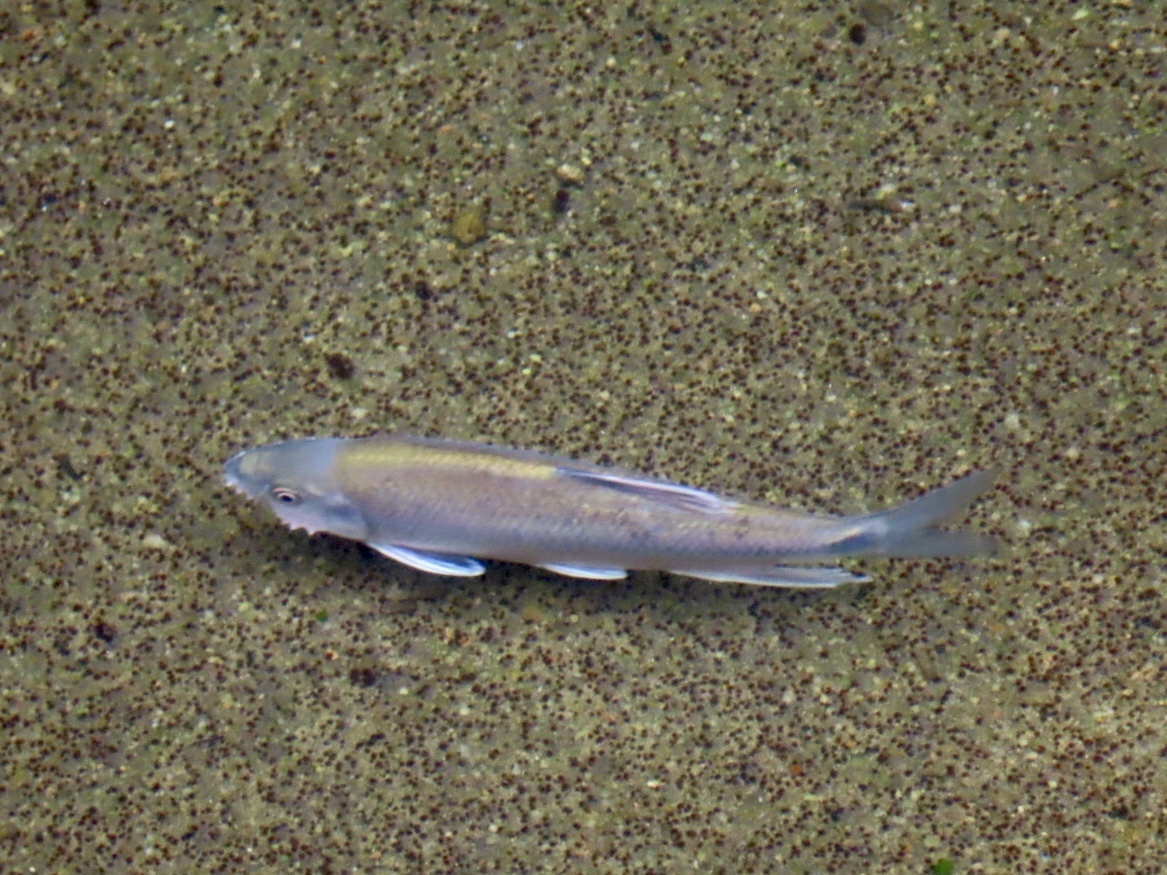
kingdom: Animalia
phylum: Chordata
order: Cypriniformes
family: Cyprinidae
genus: Parazacco
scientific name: Parazacco spilurus
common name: Predaceous chub
